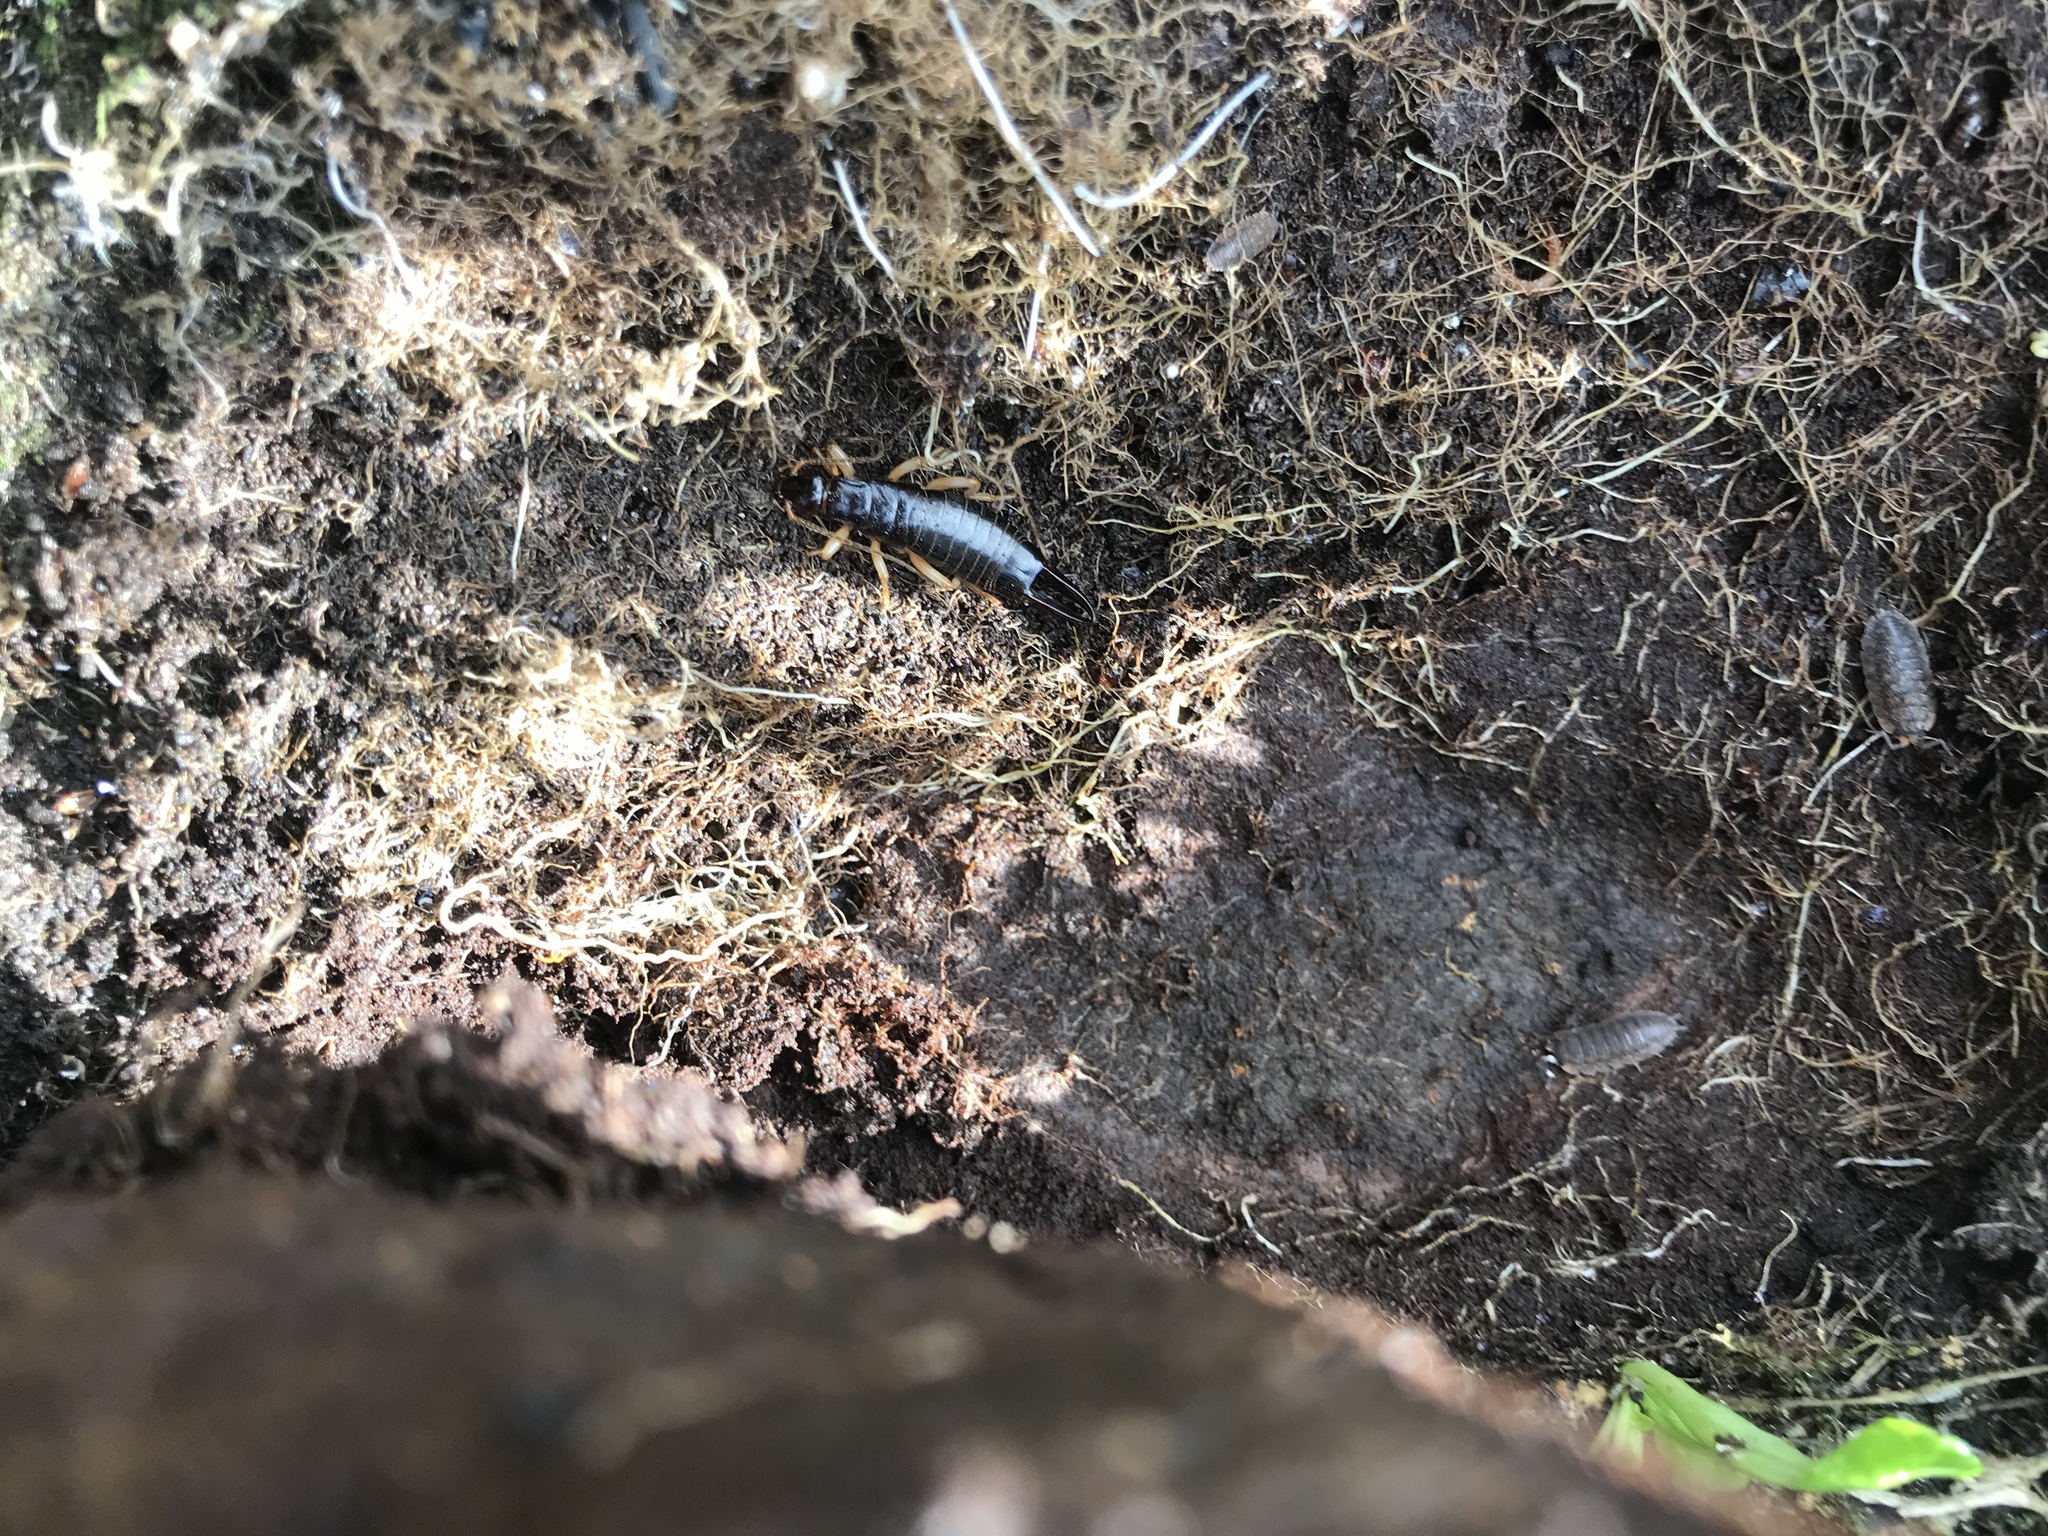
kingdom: Animalia
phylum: Arthropoda
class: Insecta
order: Dermaptera
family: Anisolabididae
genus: Anisolabis
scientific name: Anisolabis littorea
